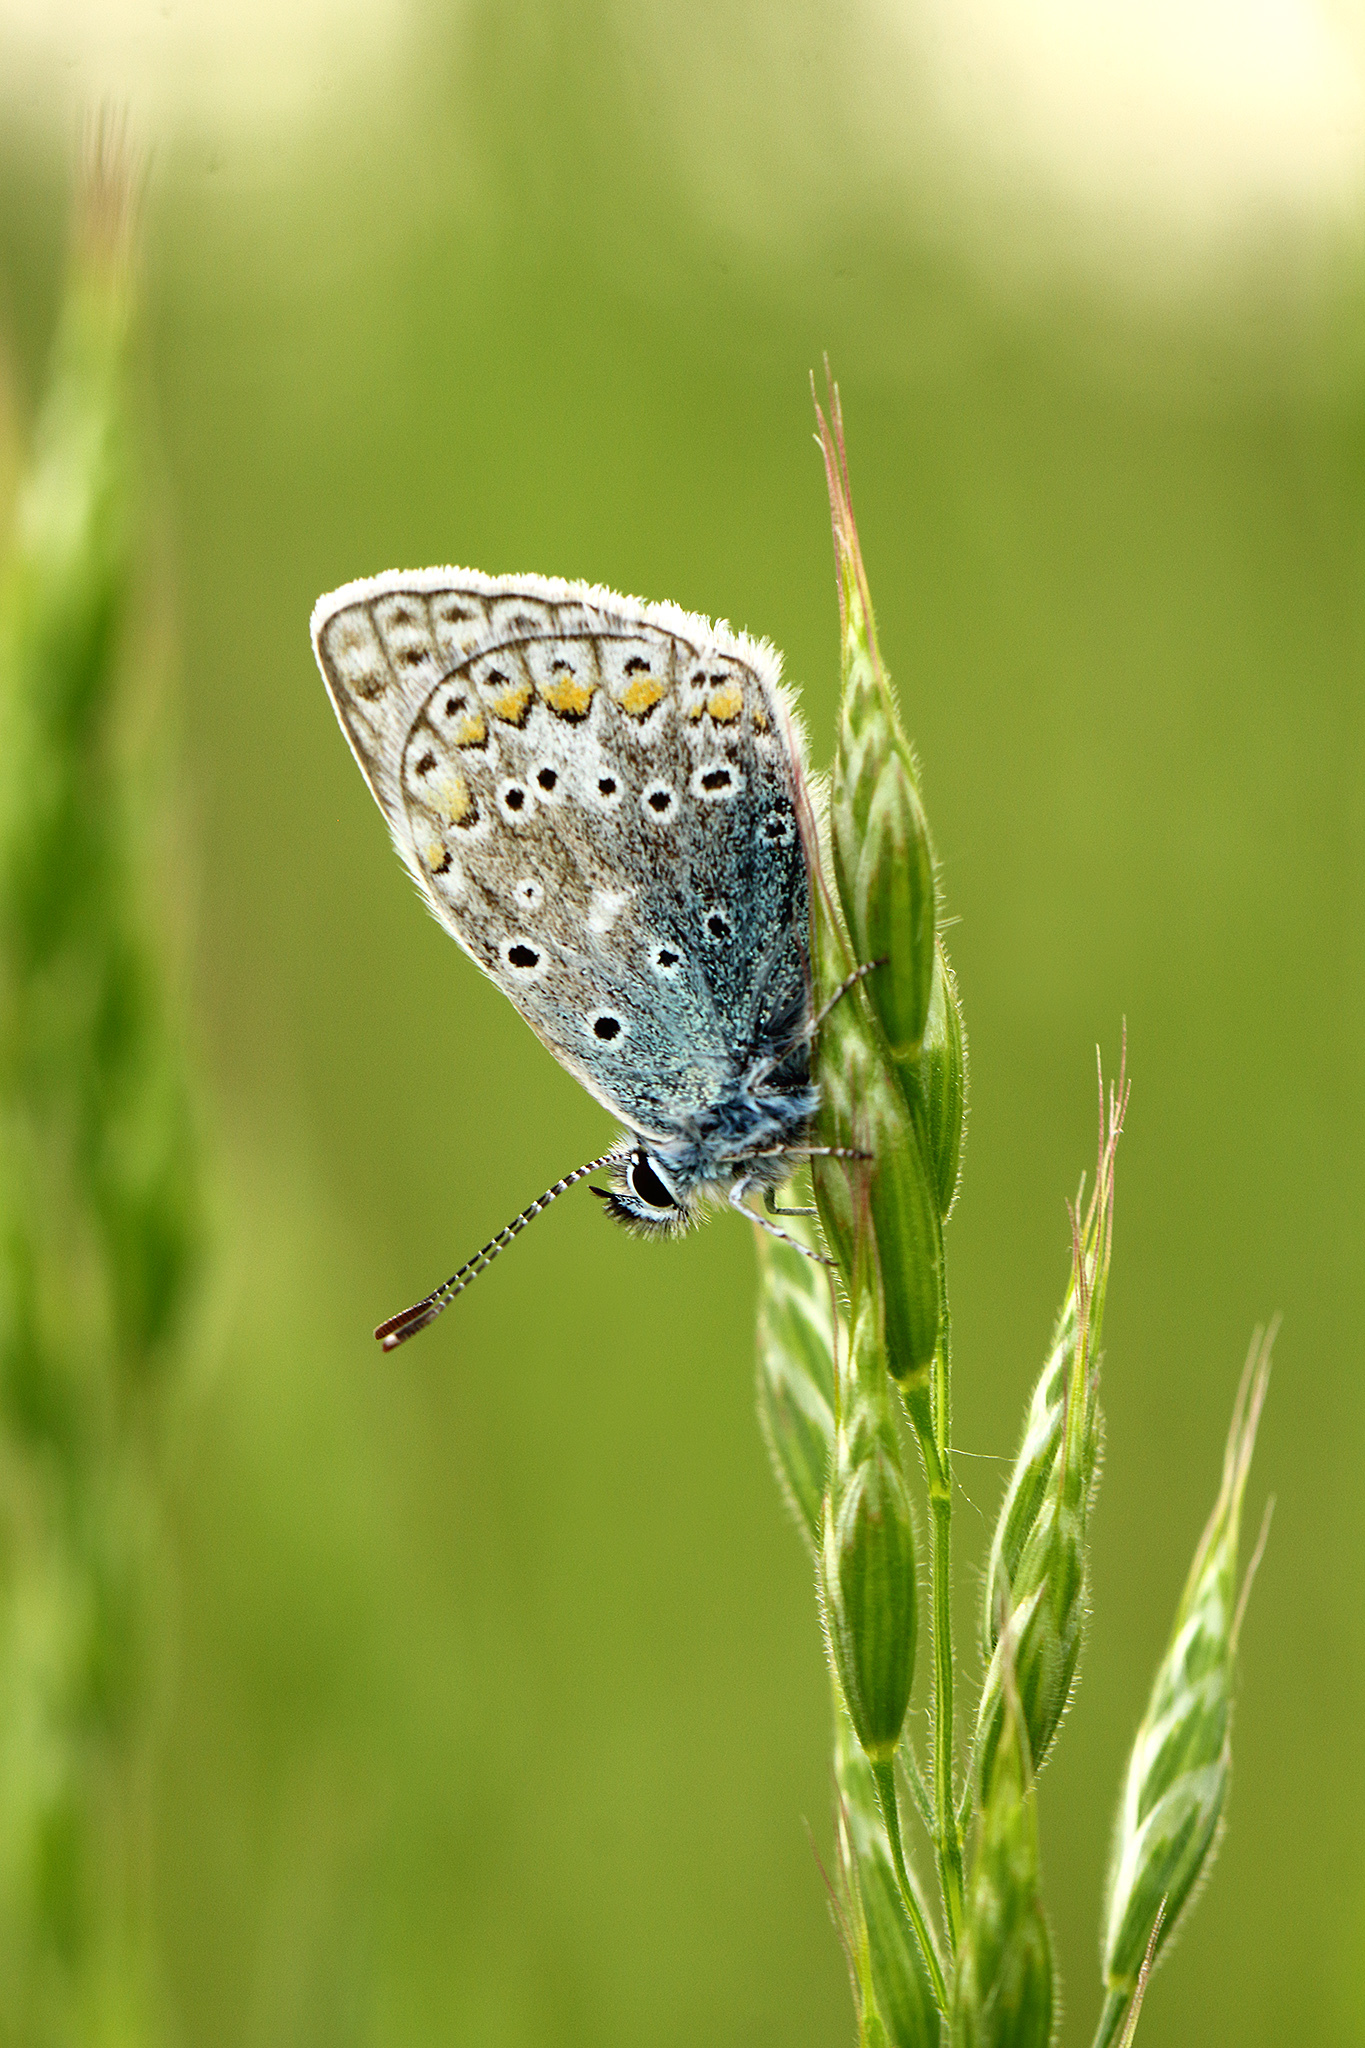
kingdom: Animalia
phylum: Arthropoda
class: Insecta
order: Lepidoptera
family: Lycaenidae
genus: Polyommatus
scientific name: Polyommatus icarus
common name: Common blue
